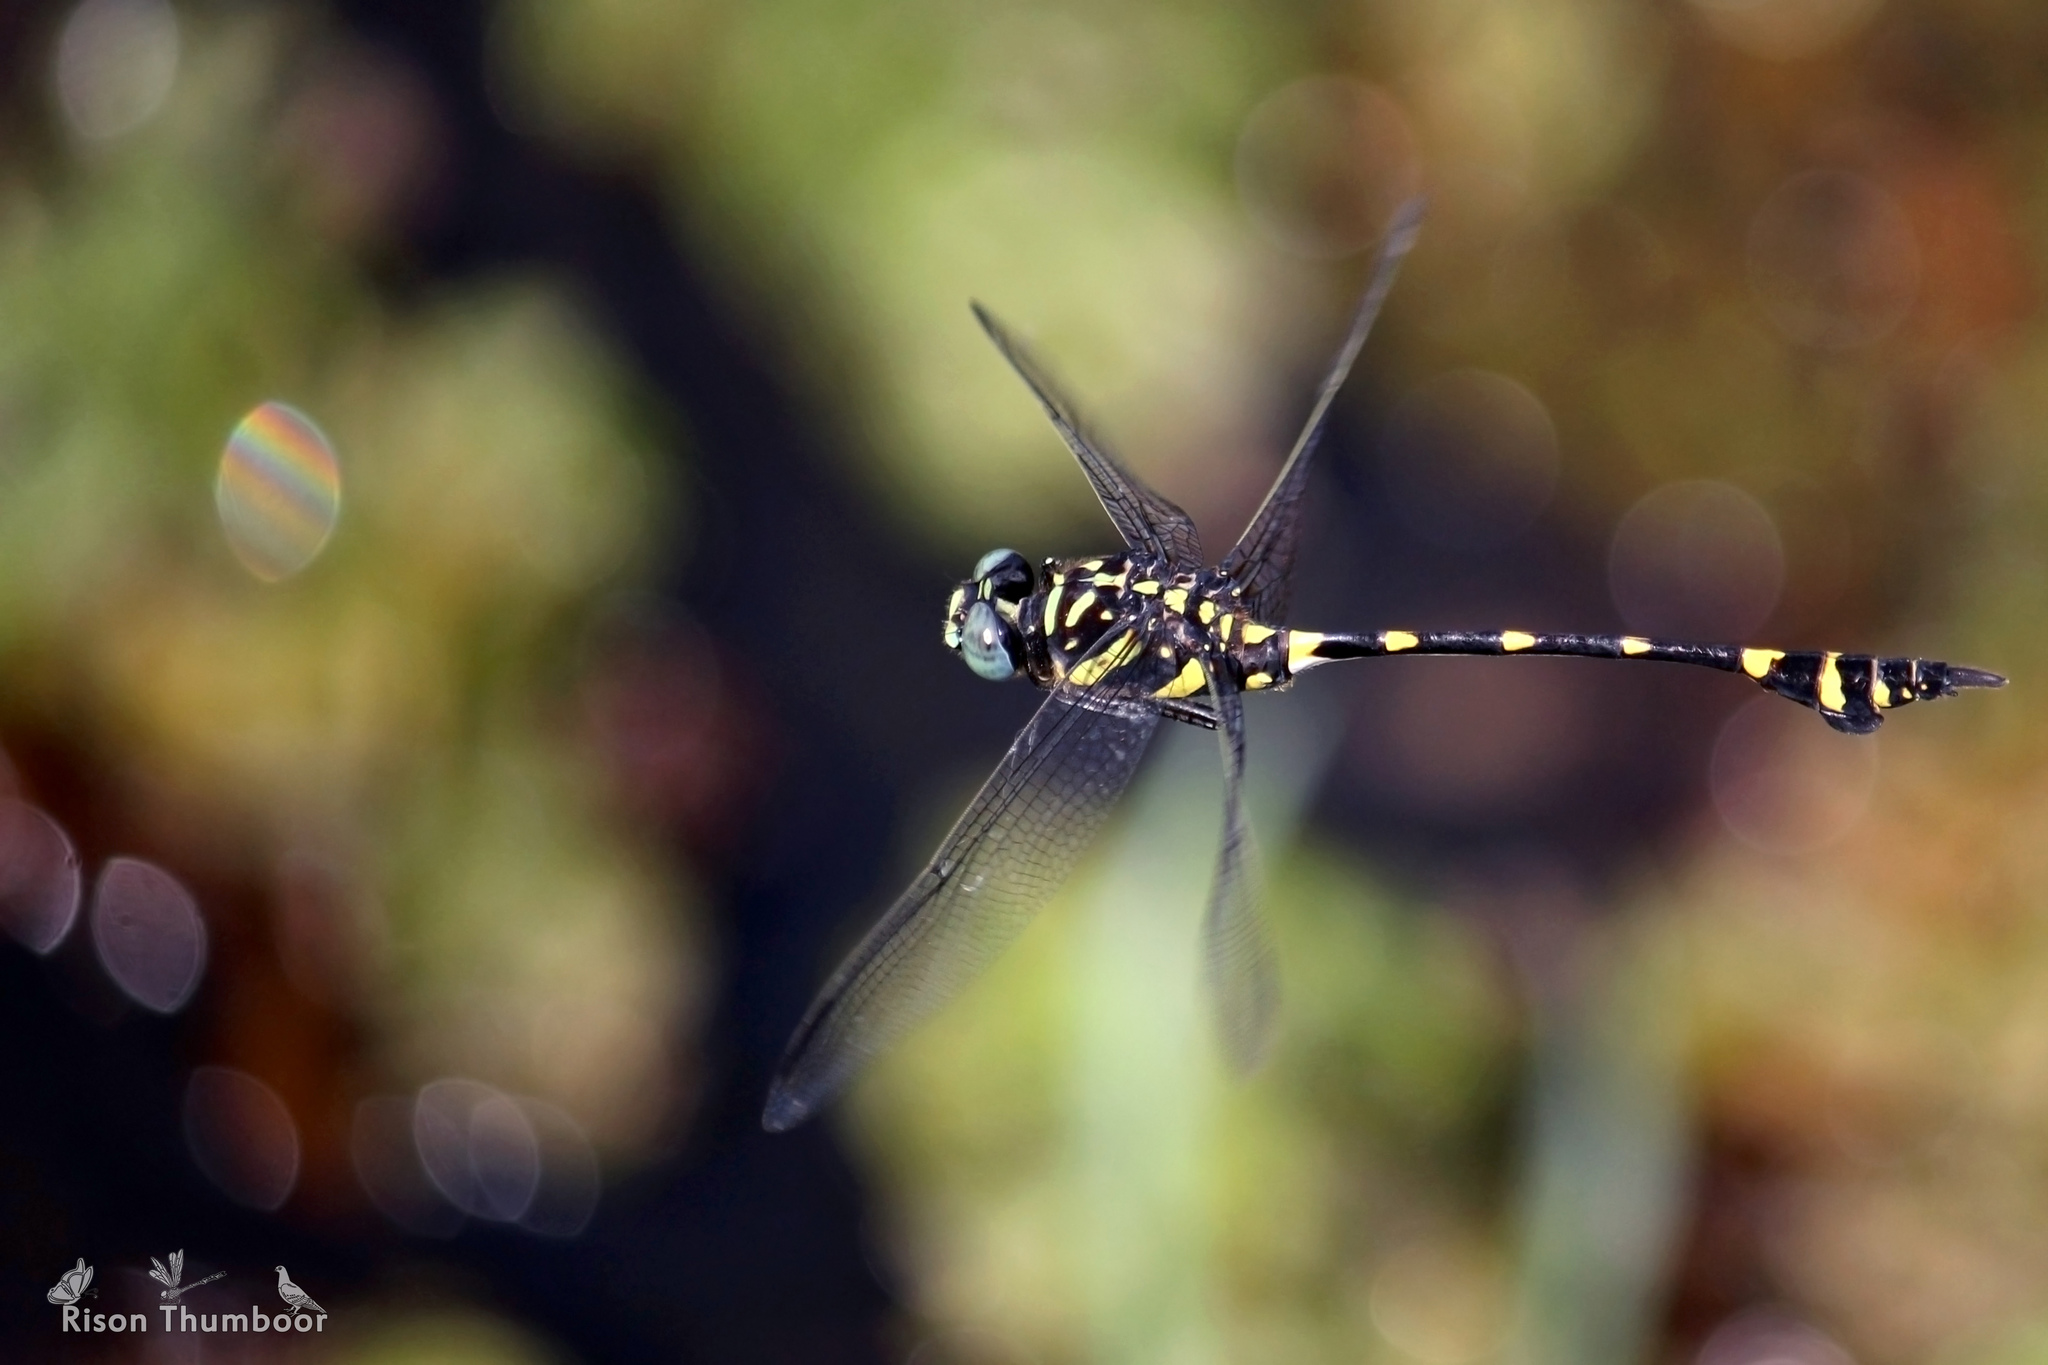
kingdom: Animalia
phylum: Arthropoda
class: Insecta
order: Odonata
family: Gomphidae
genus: Ictinogomphus
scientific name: Ictinogomphus rapax
